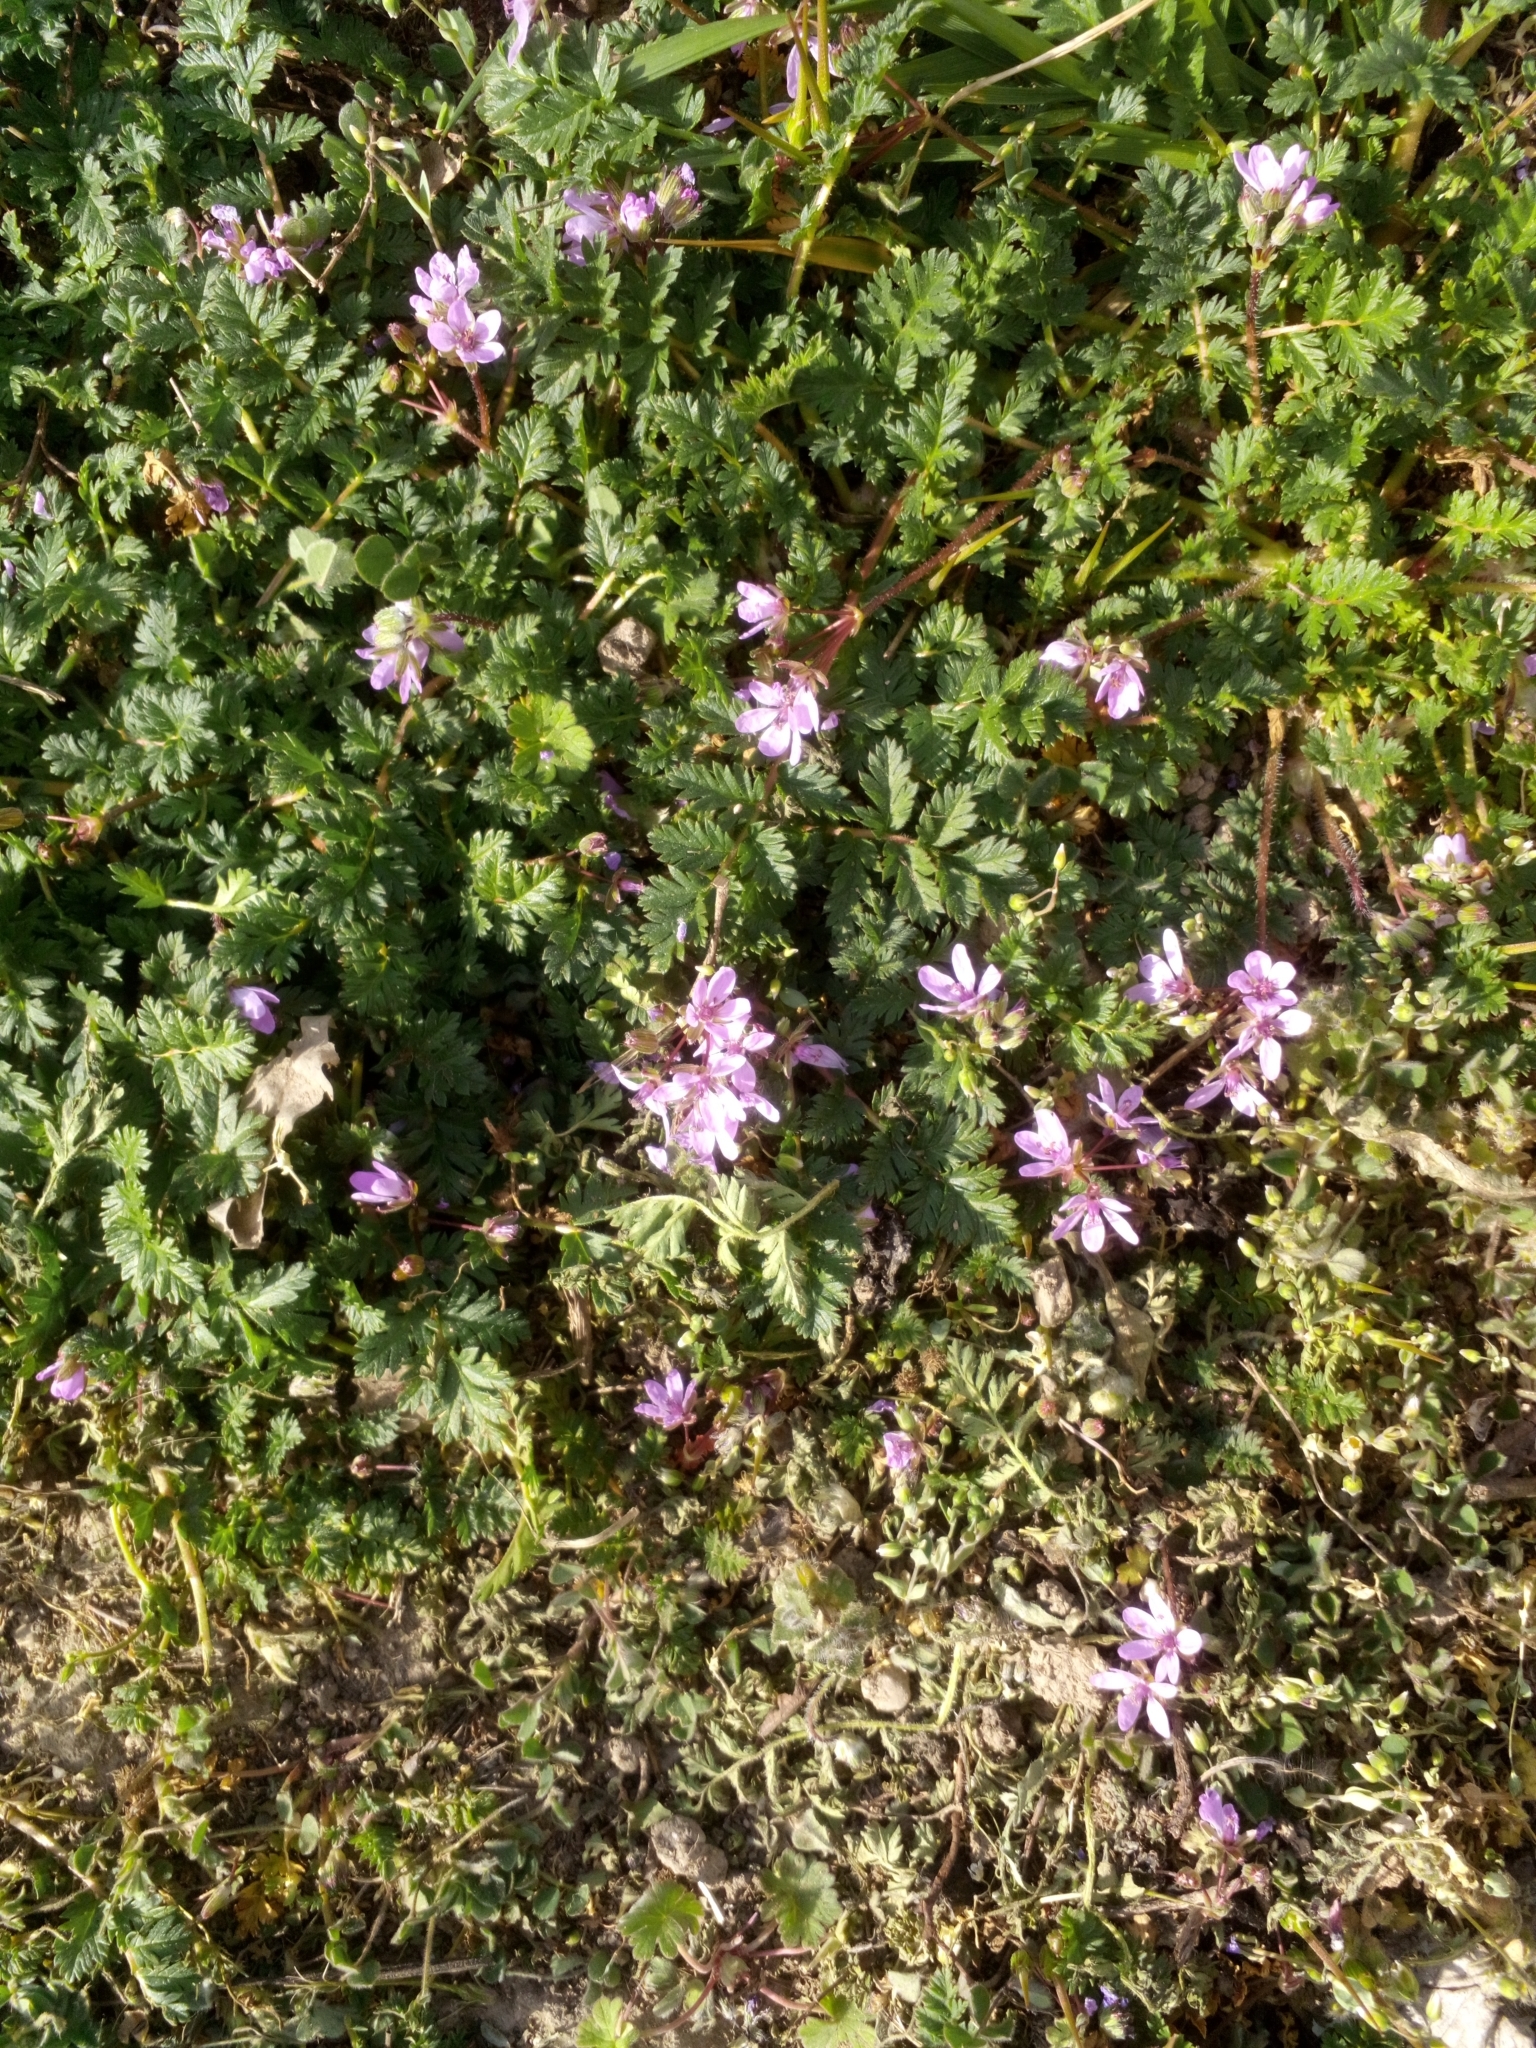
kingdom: Plantae
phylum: Tracheophyta
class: Magnoliopsida
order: Geraniales
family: Geraniaceae
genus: Erodium
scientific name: Erodium cicutarium
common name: Common stork's-bill
